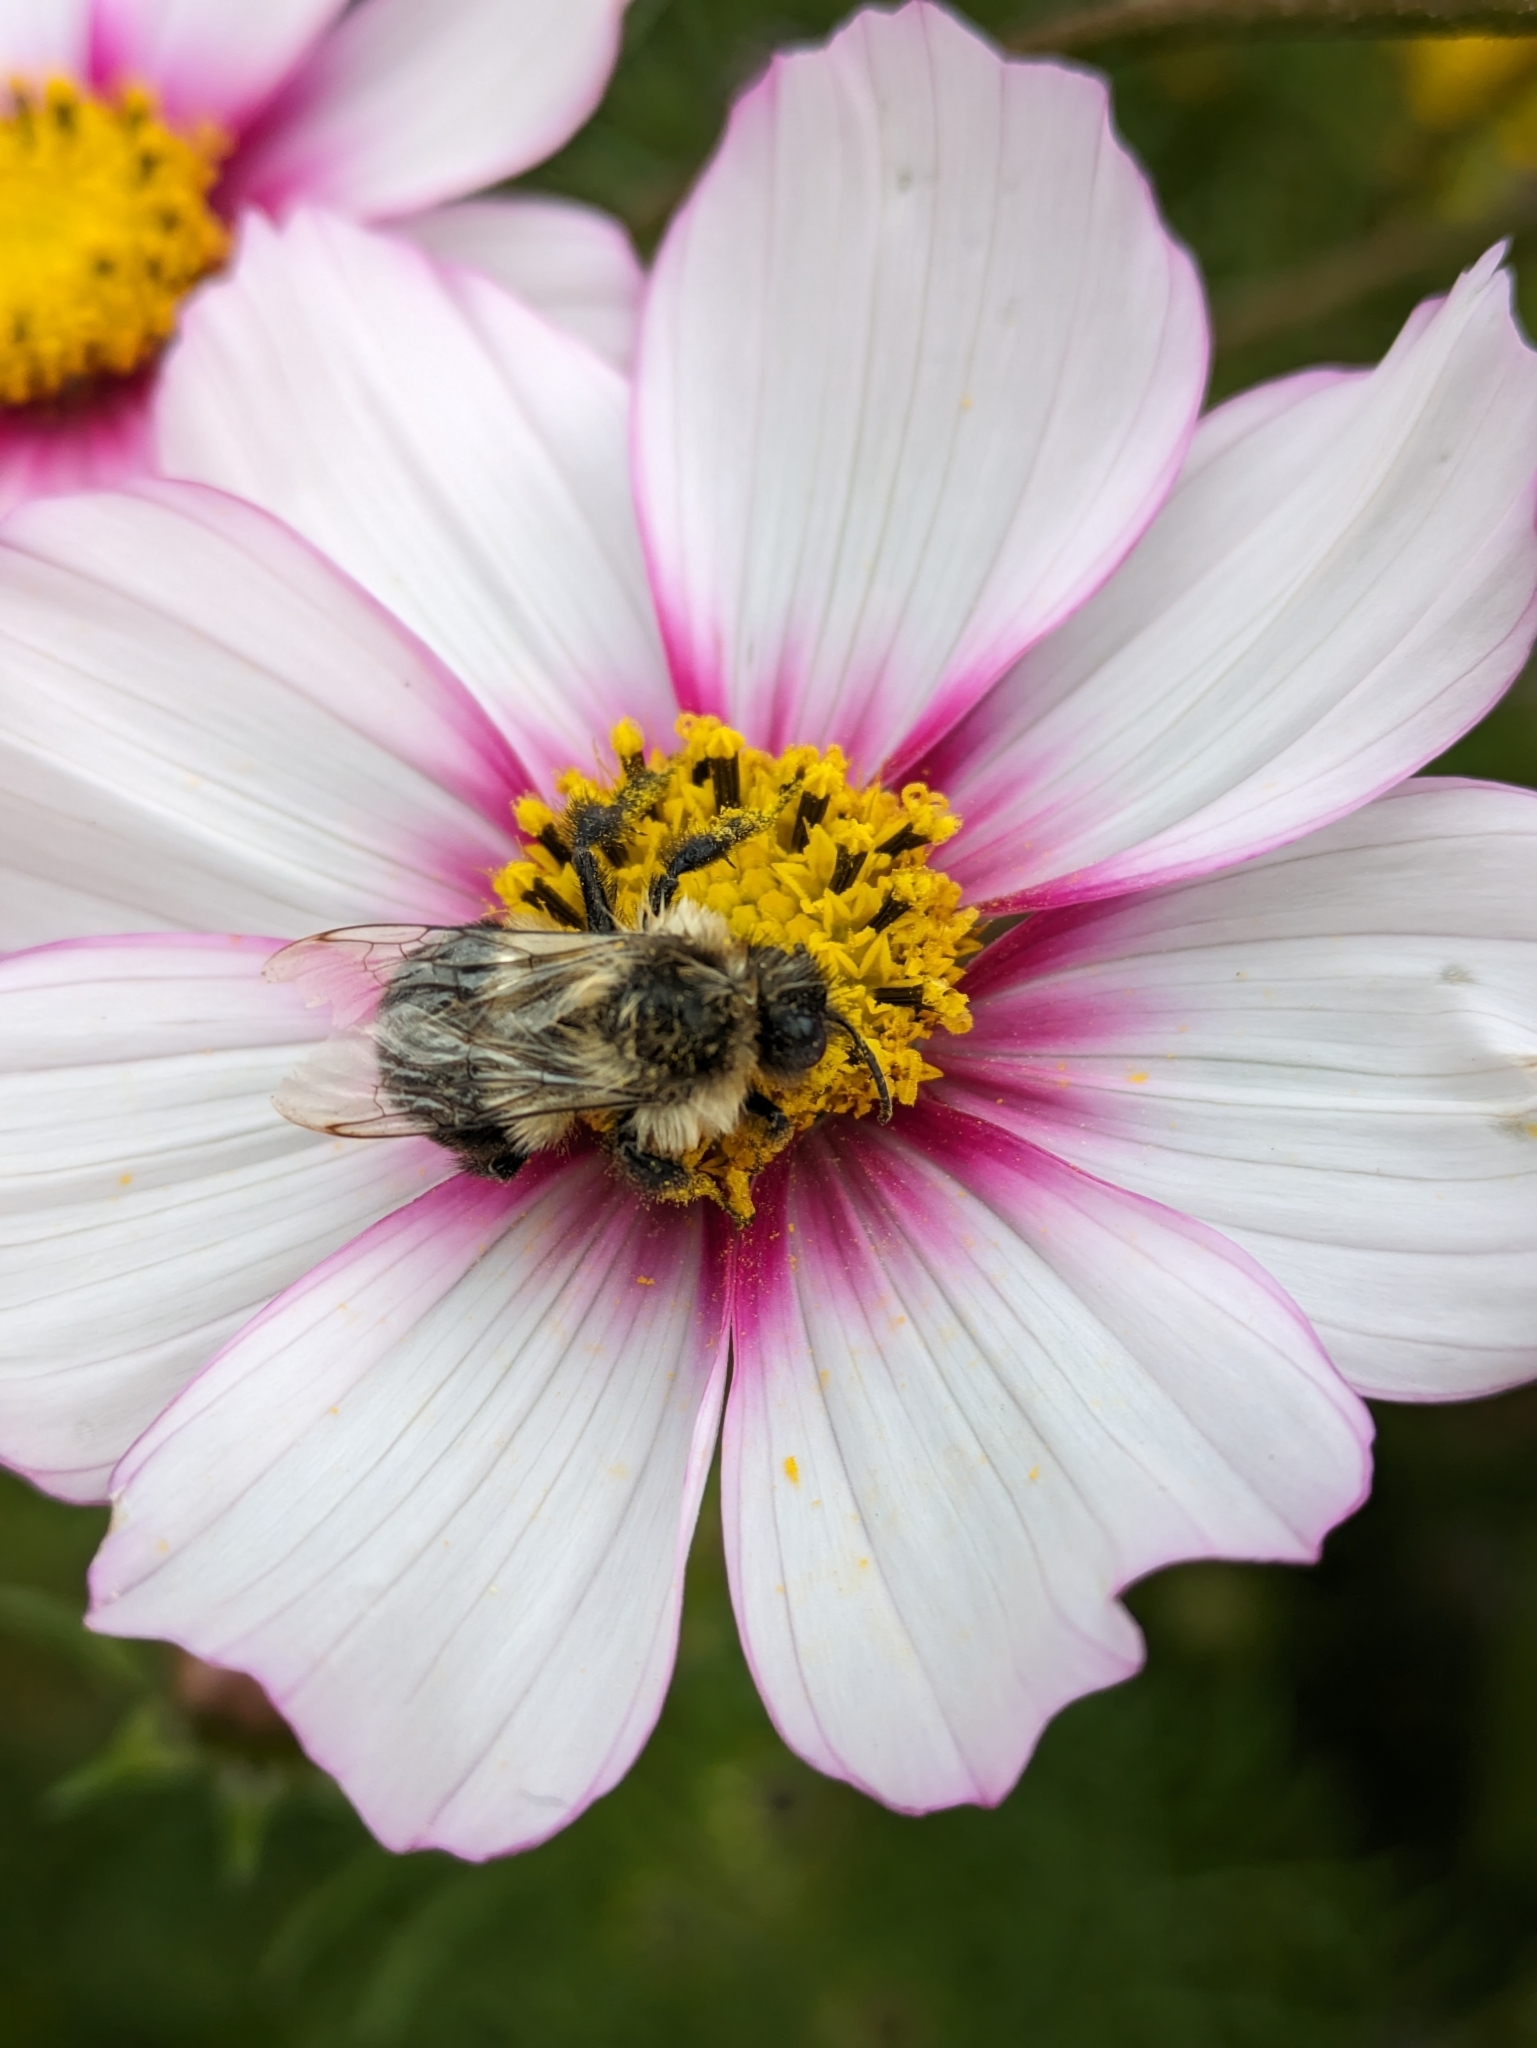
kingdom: Animalia
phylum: Arthropoda
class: Insecta
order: Hymenoptera
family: Apidae
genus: Bombus
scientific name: Bombus impatiens
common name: Common eastern bumble bee
